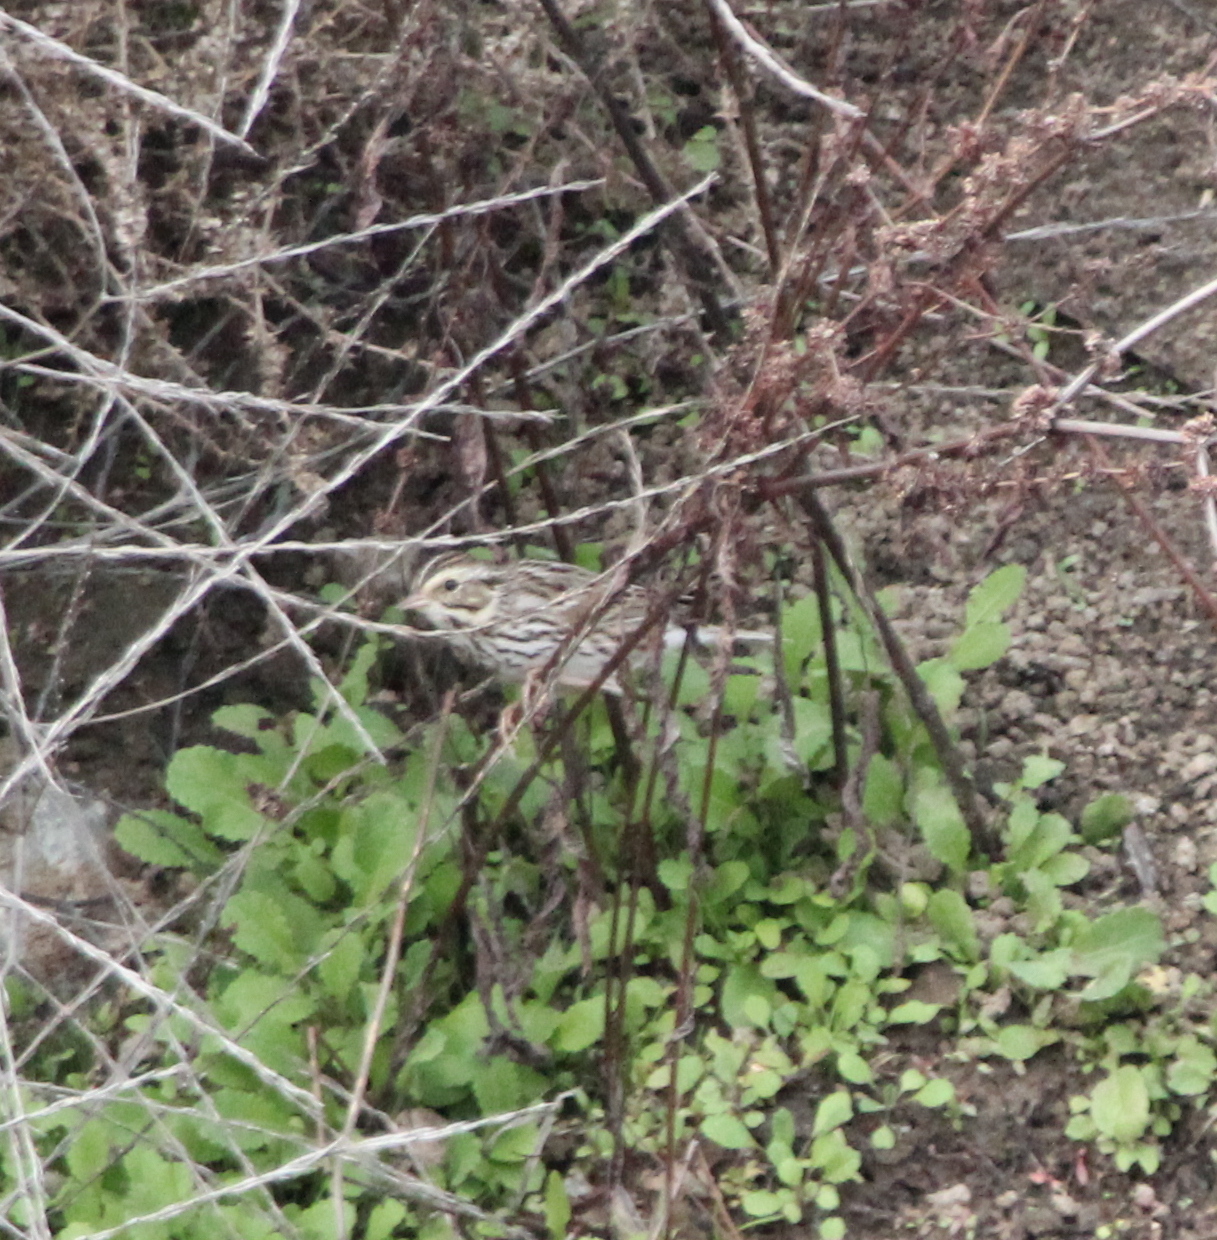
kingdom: Animalia
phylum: Chordata
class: Aves
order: Passeriformes
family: Passerellidae
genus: Passerculus
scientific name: Passerculus sandwichensis
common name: Savannah sparrow
